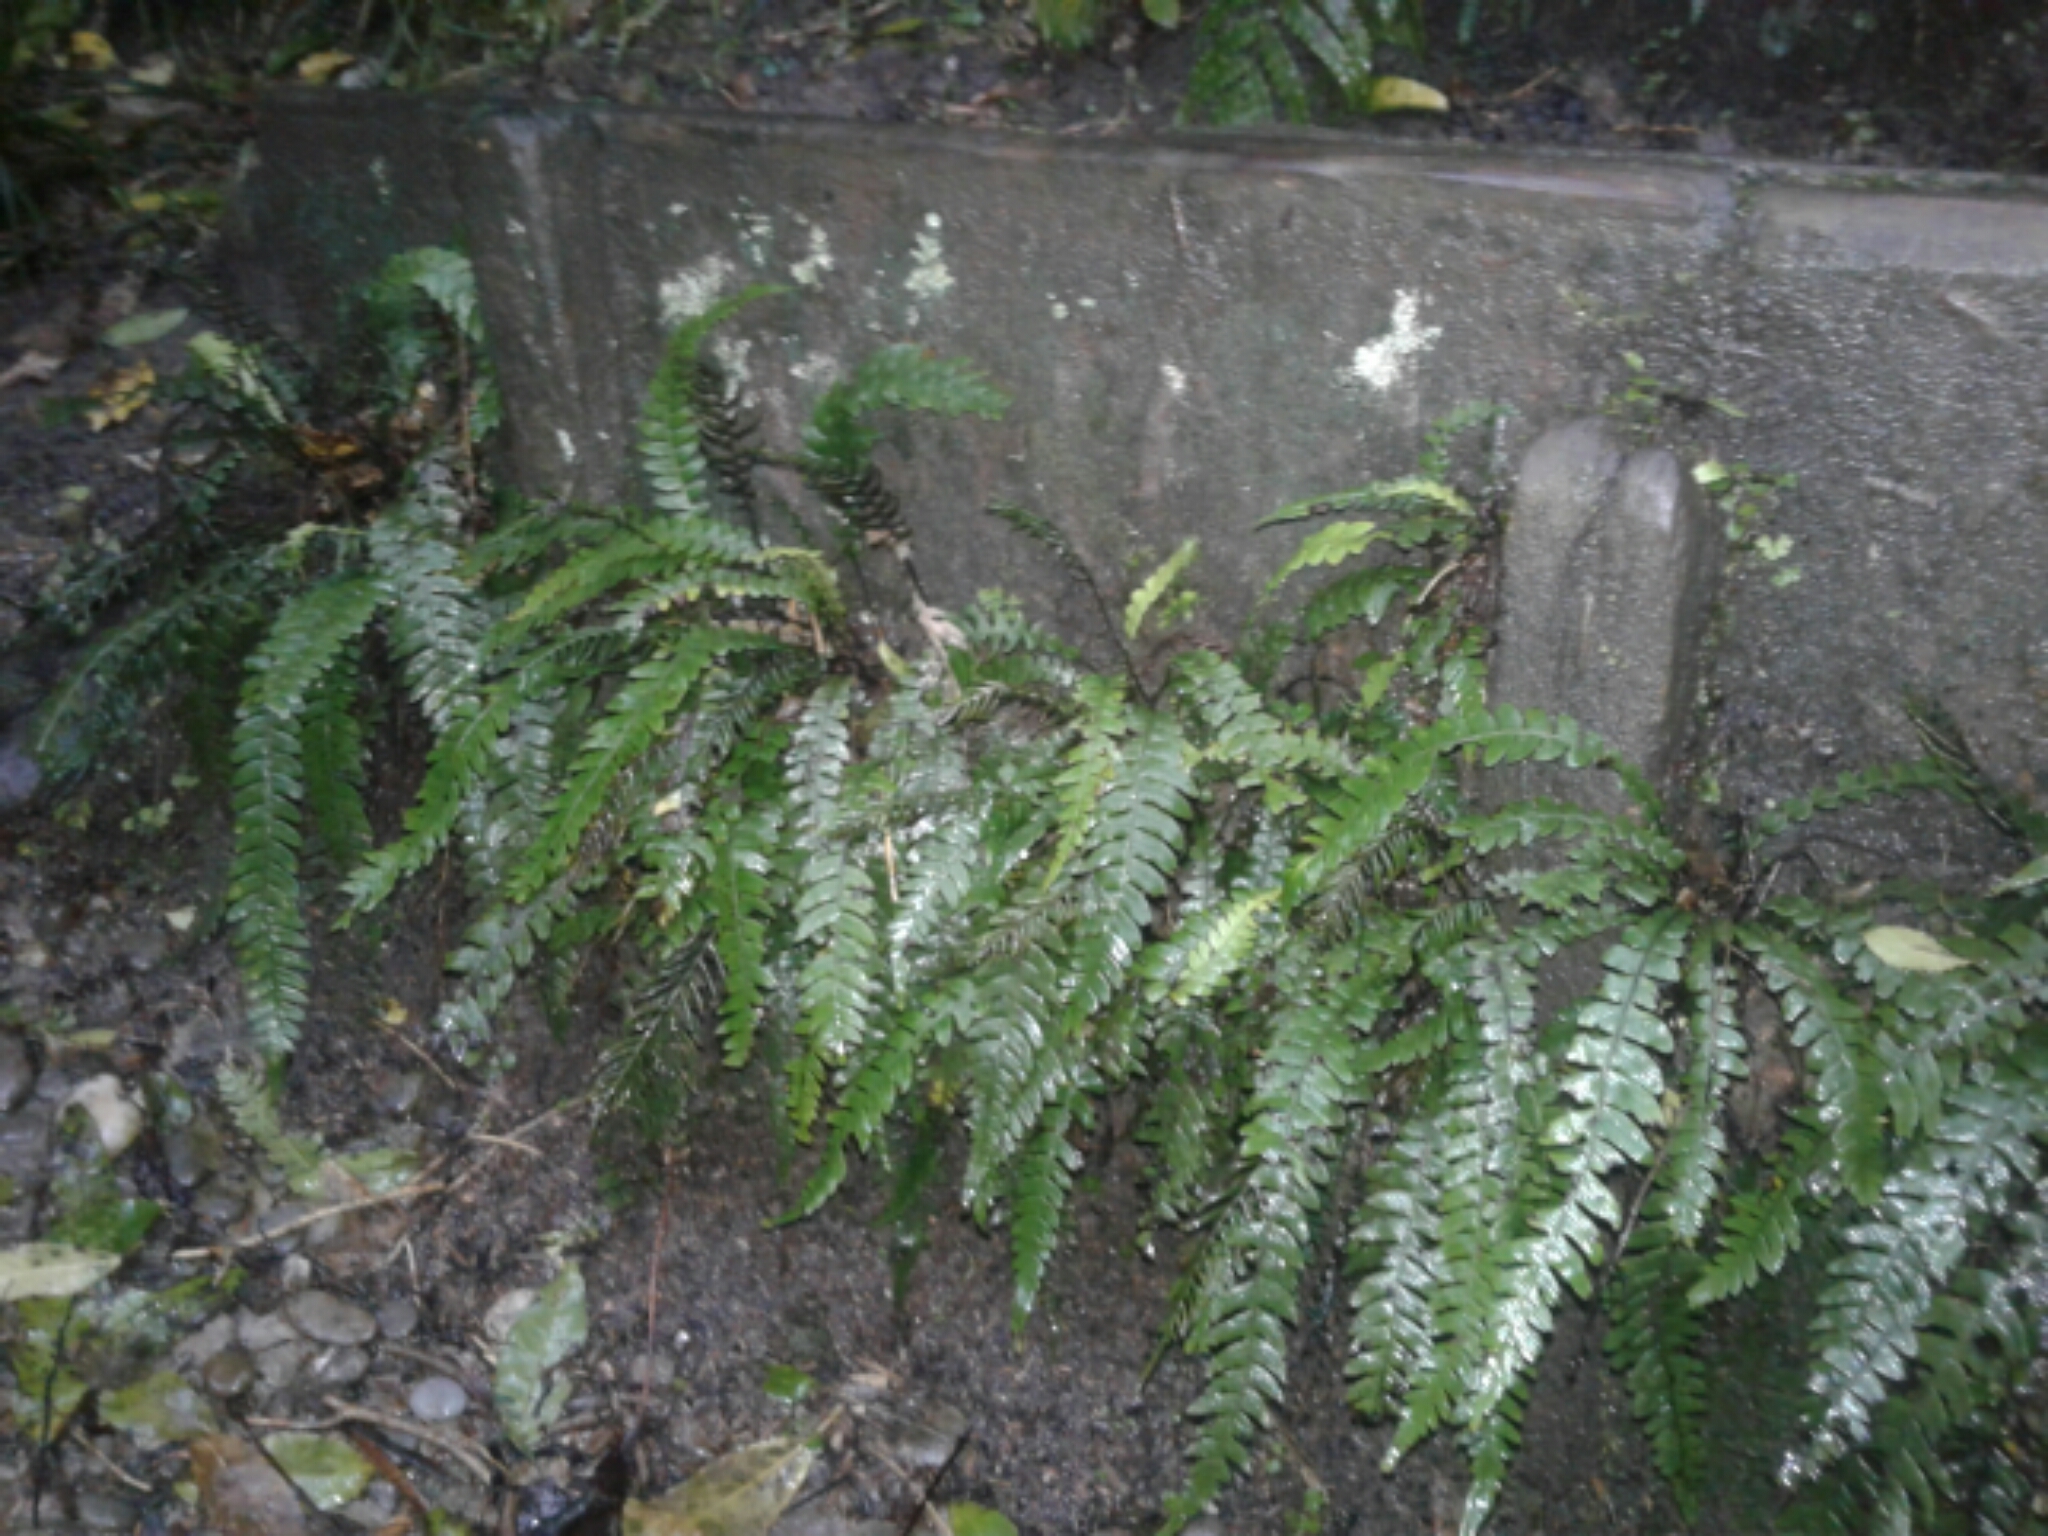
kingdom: Plantae
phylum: Tracheophyta
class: Polypodiopsida
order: Polypodiales
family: Blechnaceae
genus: Austroblechnum
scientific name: Austroblechnum lanceolatum
